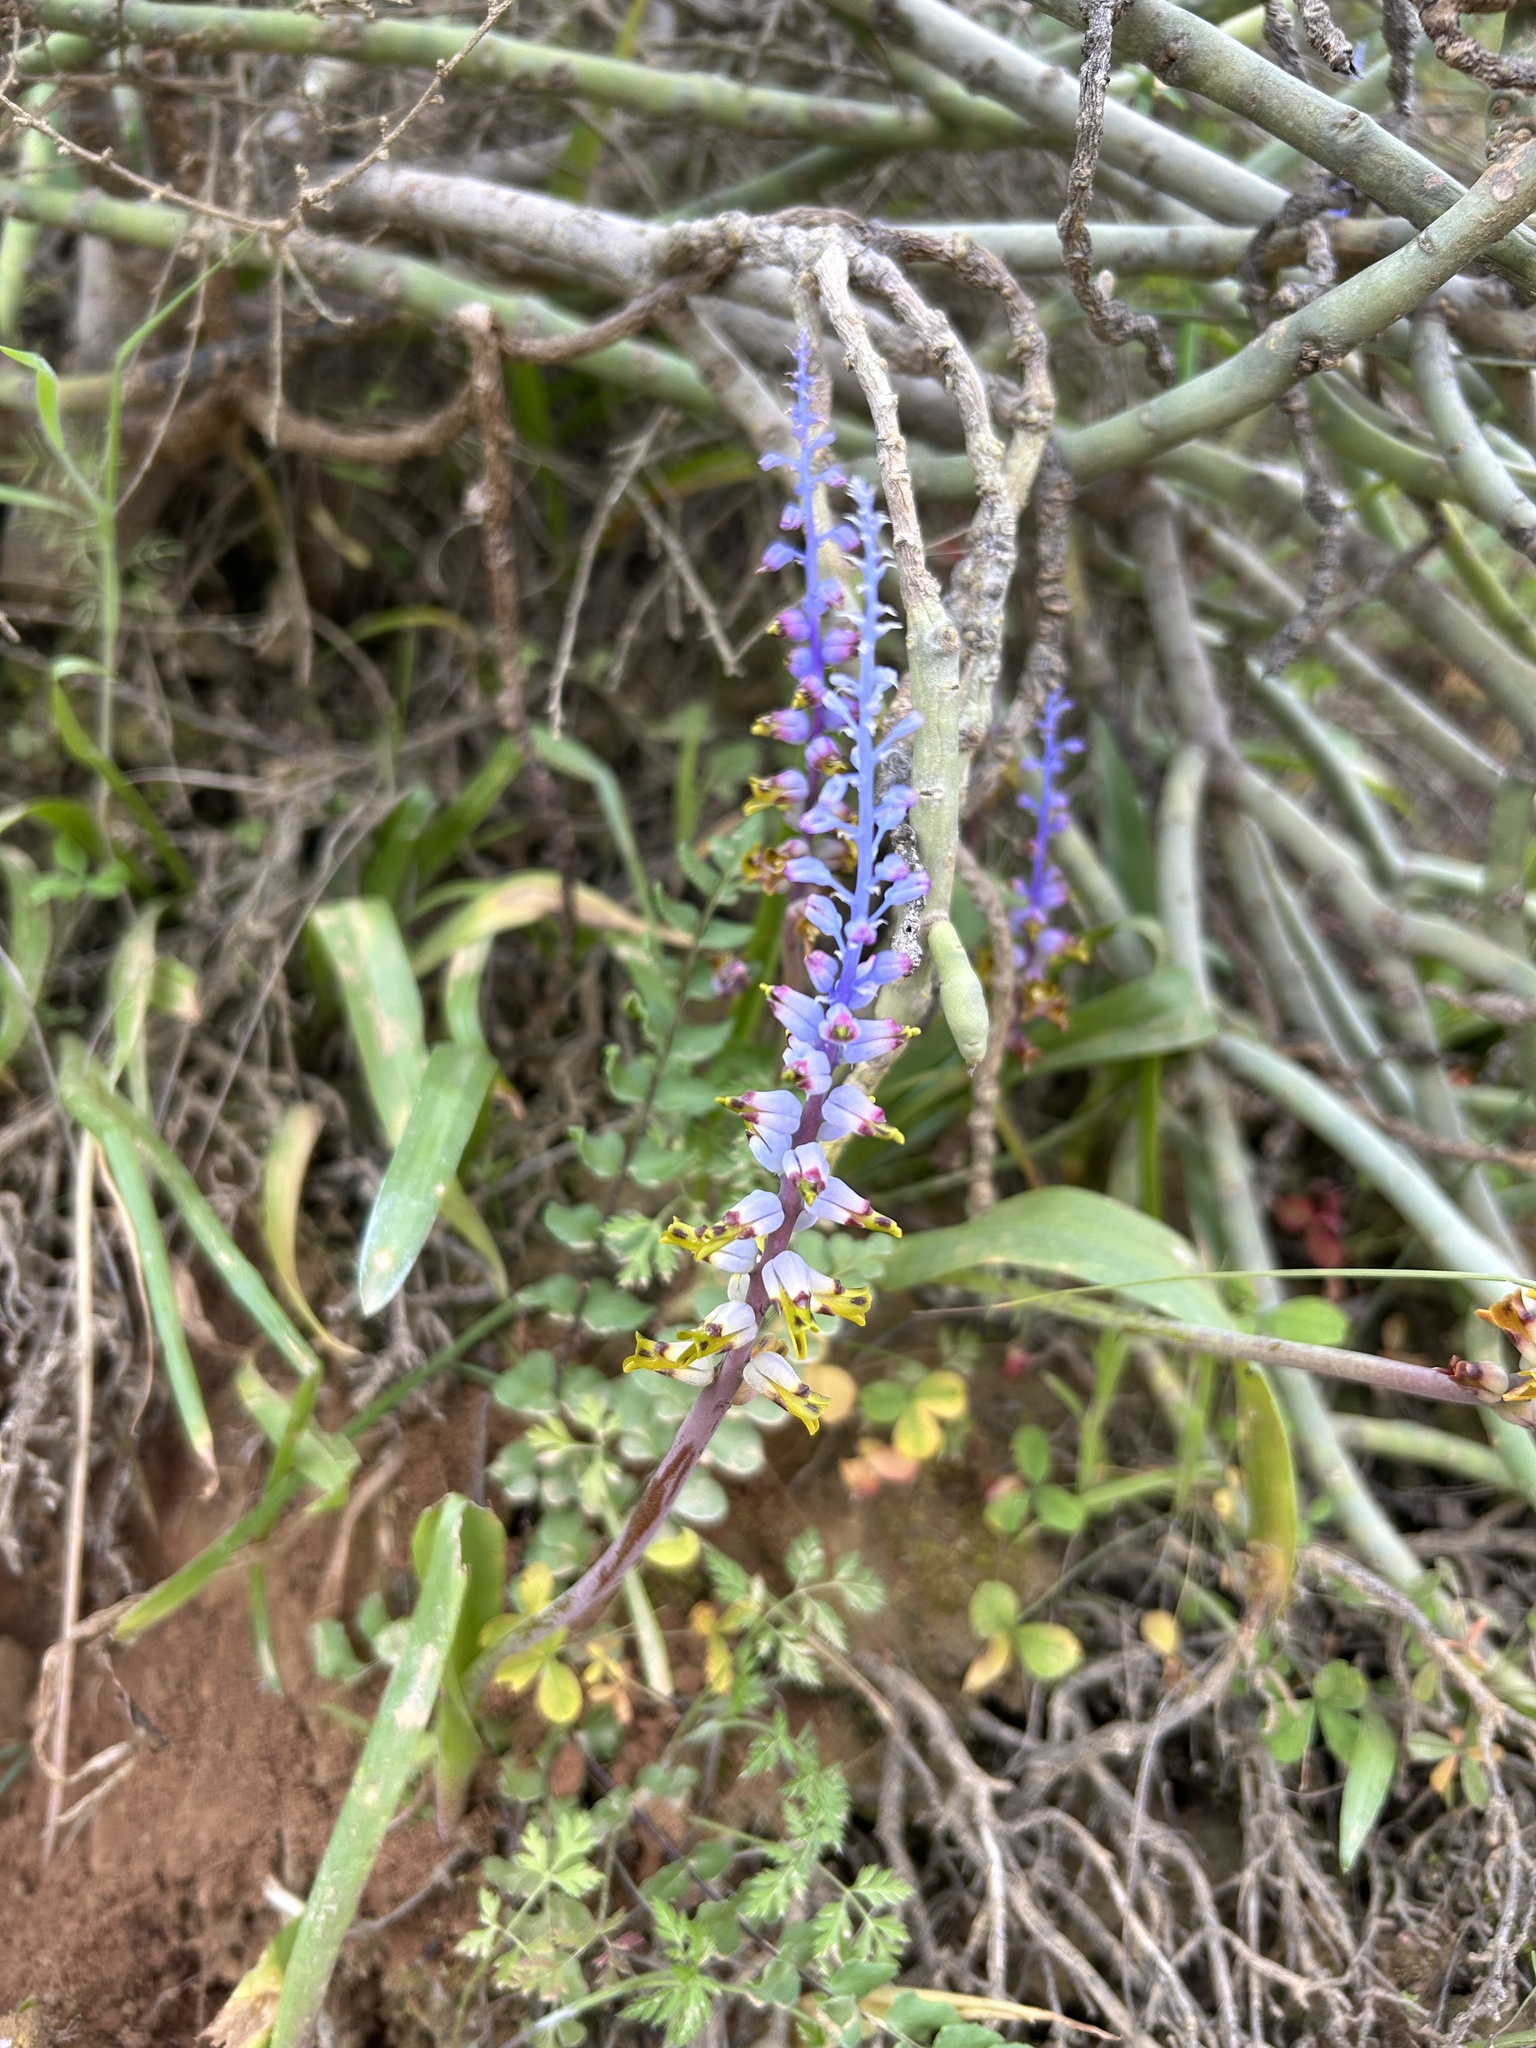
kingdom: Plantae
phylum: Tracheophyta
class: Liliopsida
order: Asparagales
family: Asparagaceae
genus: Lachenalia
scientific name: Lachenalia mutabilis
